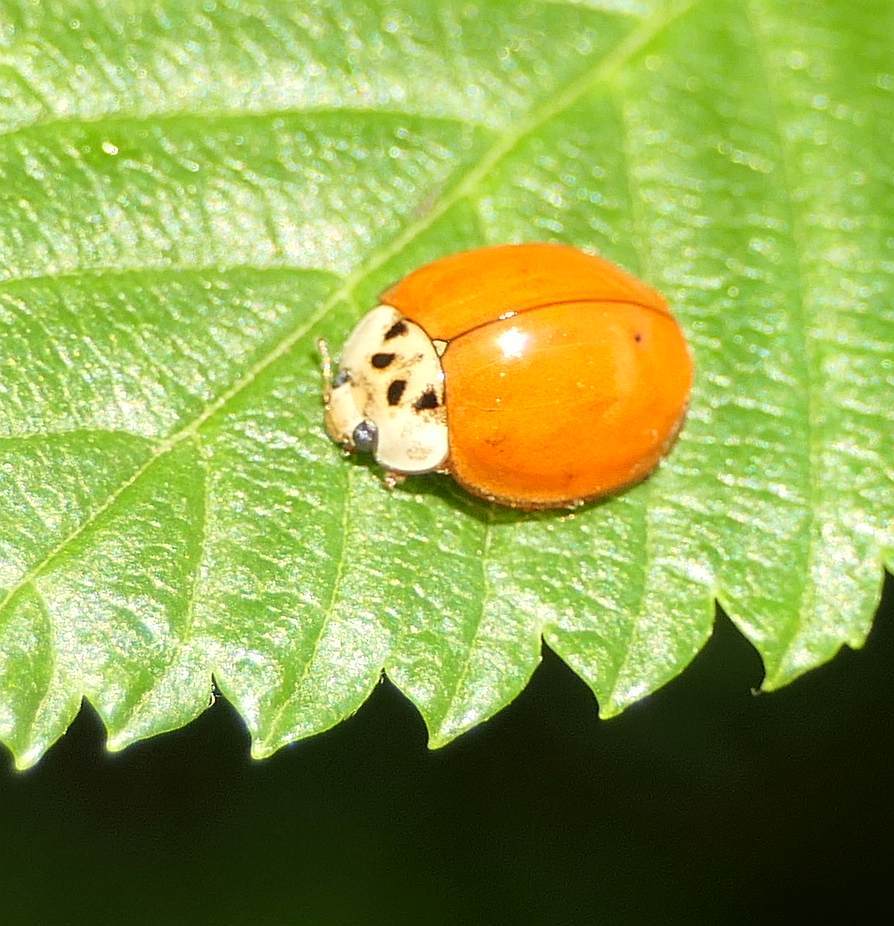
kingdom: Animalia
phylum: Arthropoda
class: Insecta
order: Coleoptera
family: Coccinellidae
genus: Harmonia
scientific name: Harmonia axyridis
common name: Harlequin ladybird
